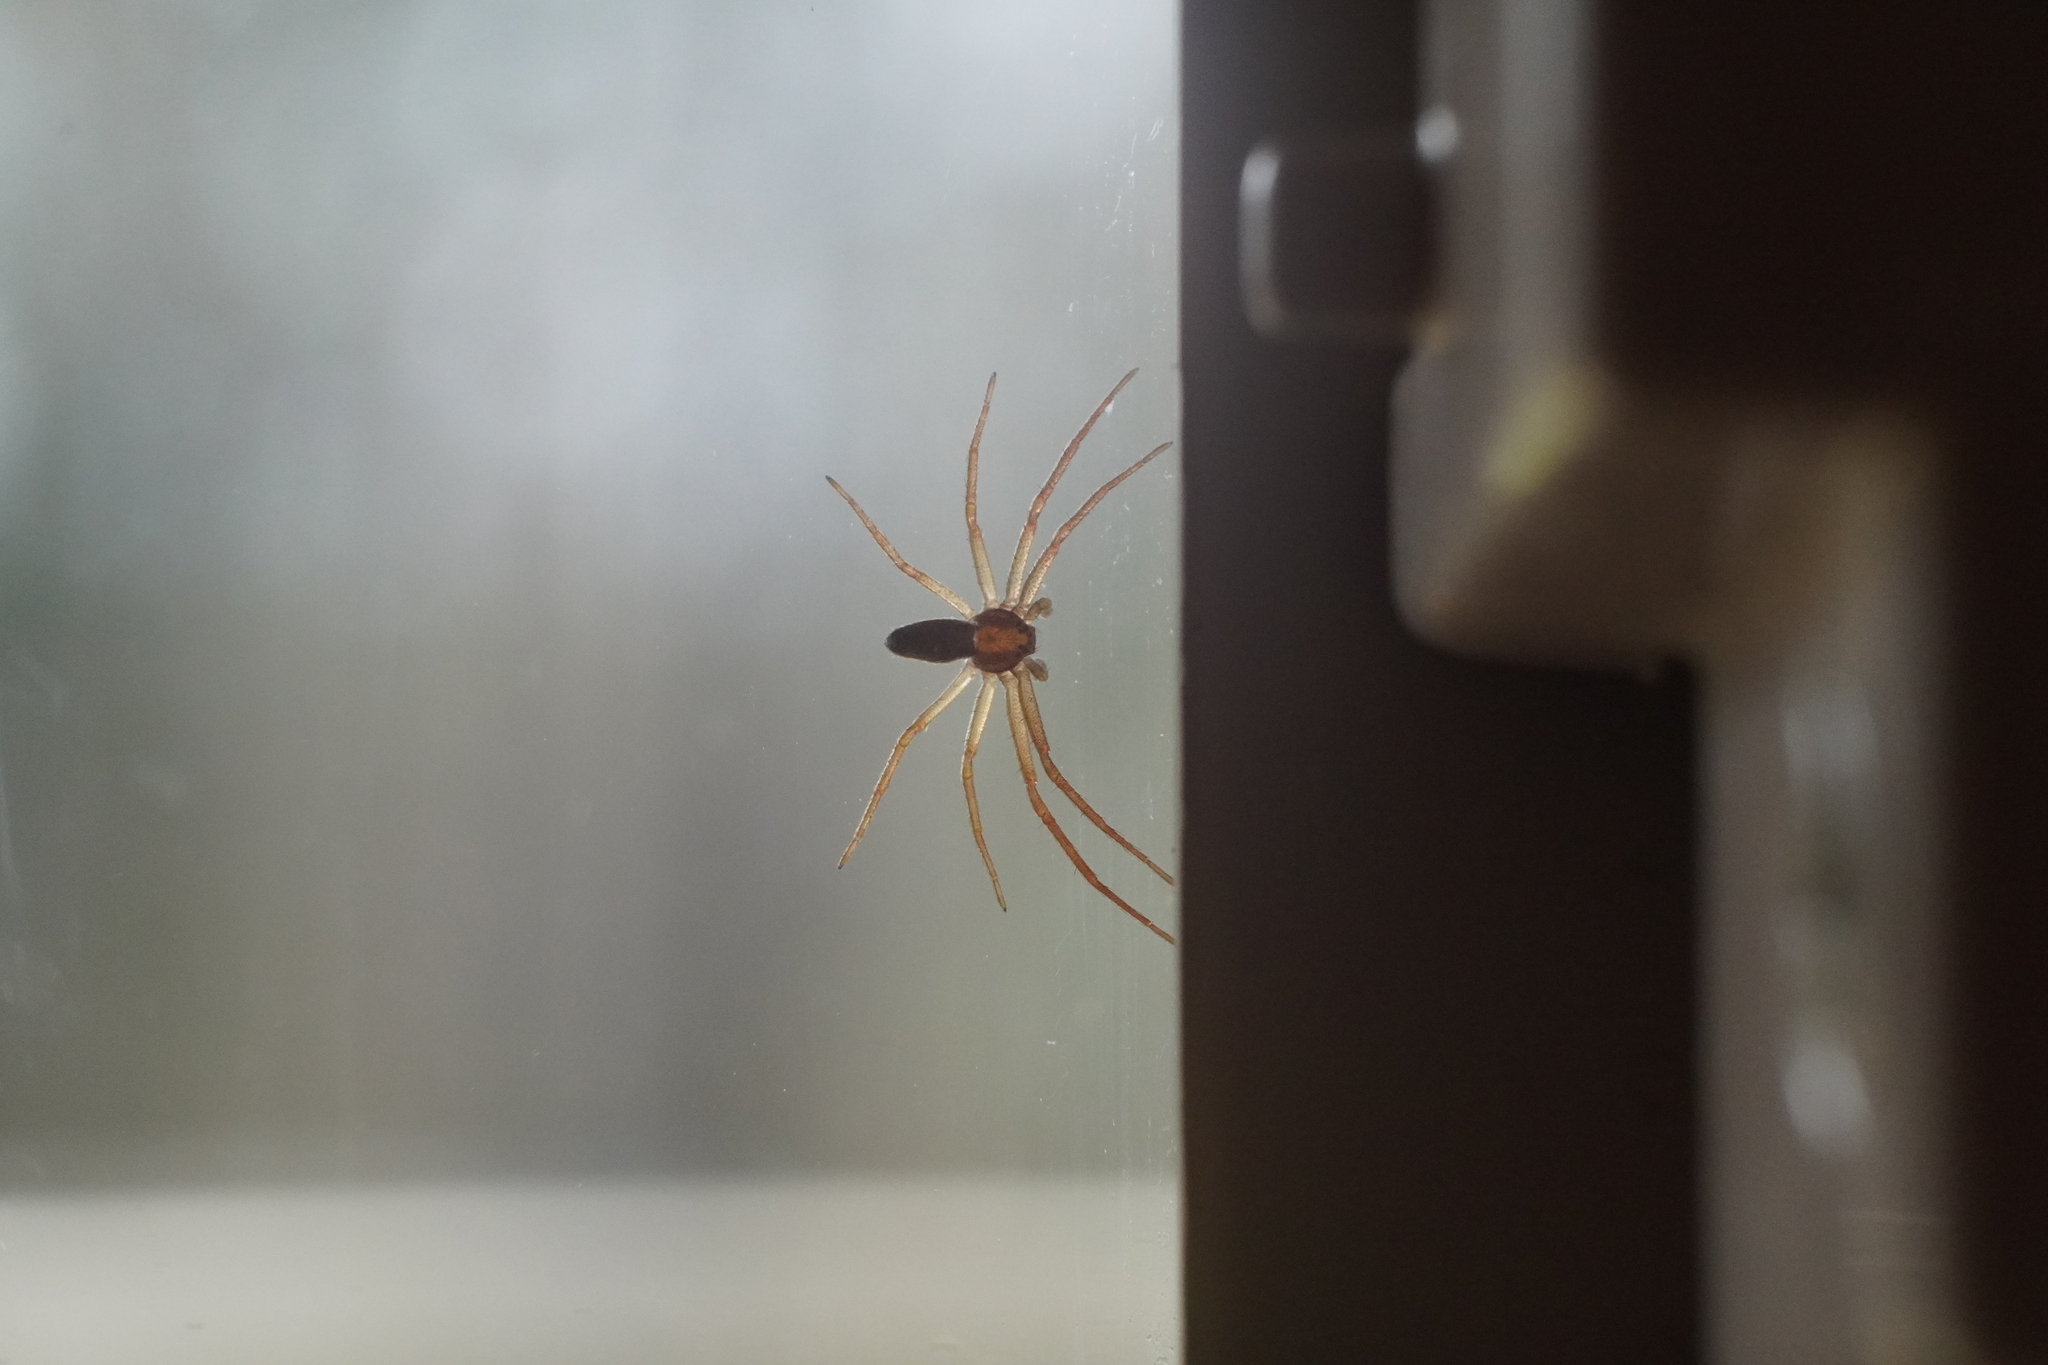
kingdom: Animalia
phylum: Arthropoda
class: Arachnida
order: Araneae
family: Philodromidae
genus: Philodromus
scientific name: Philodromus
